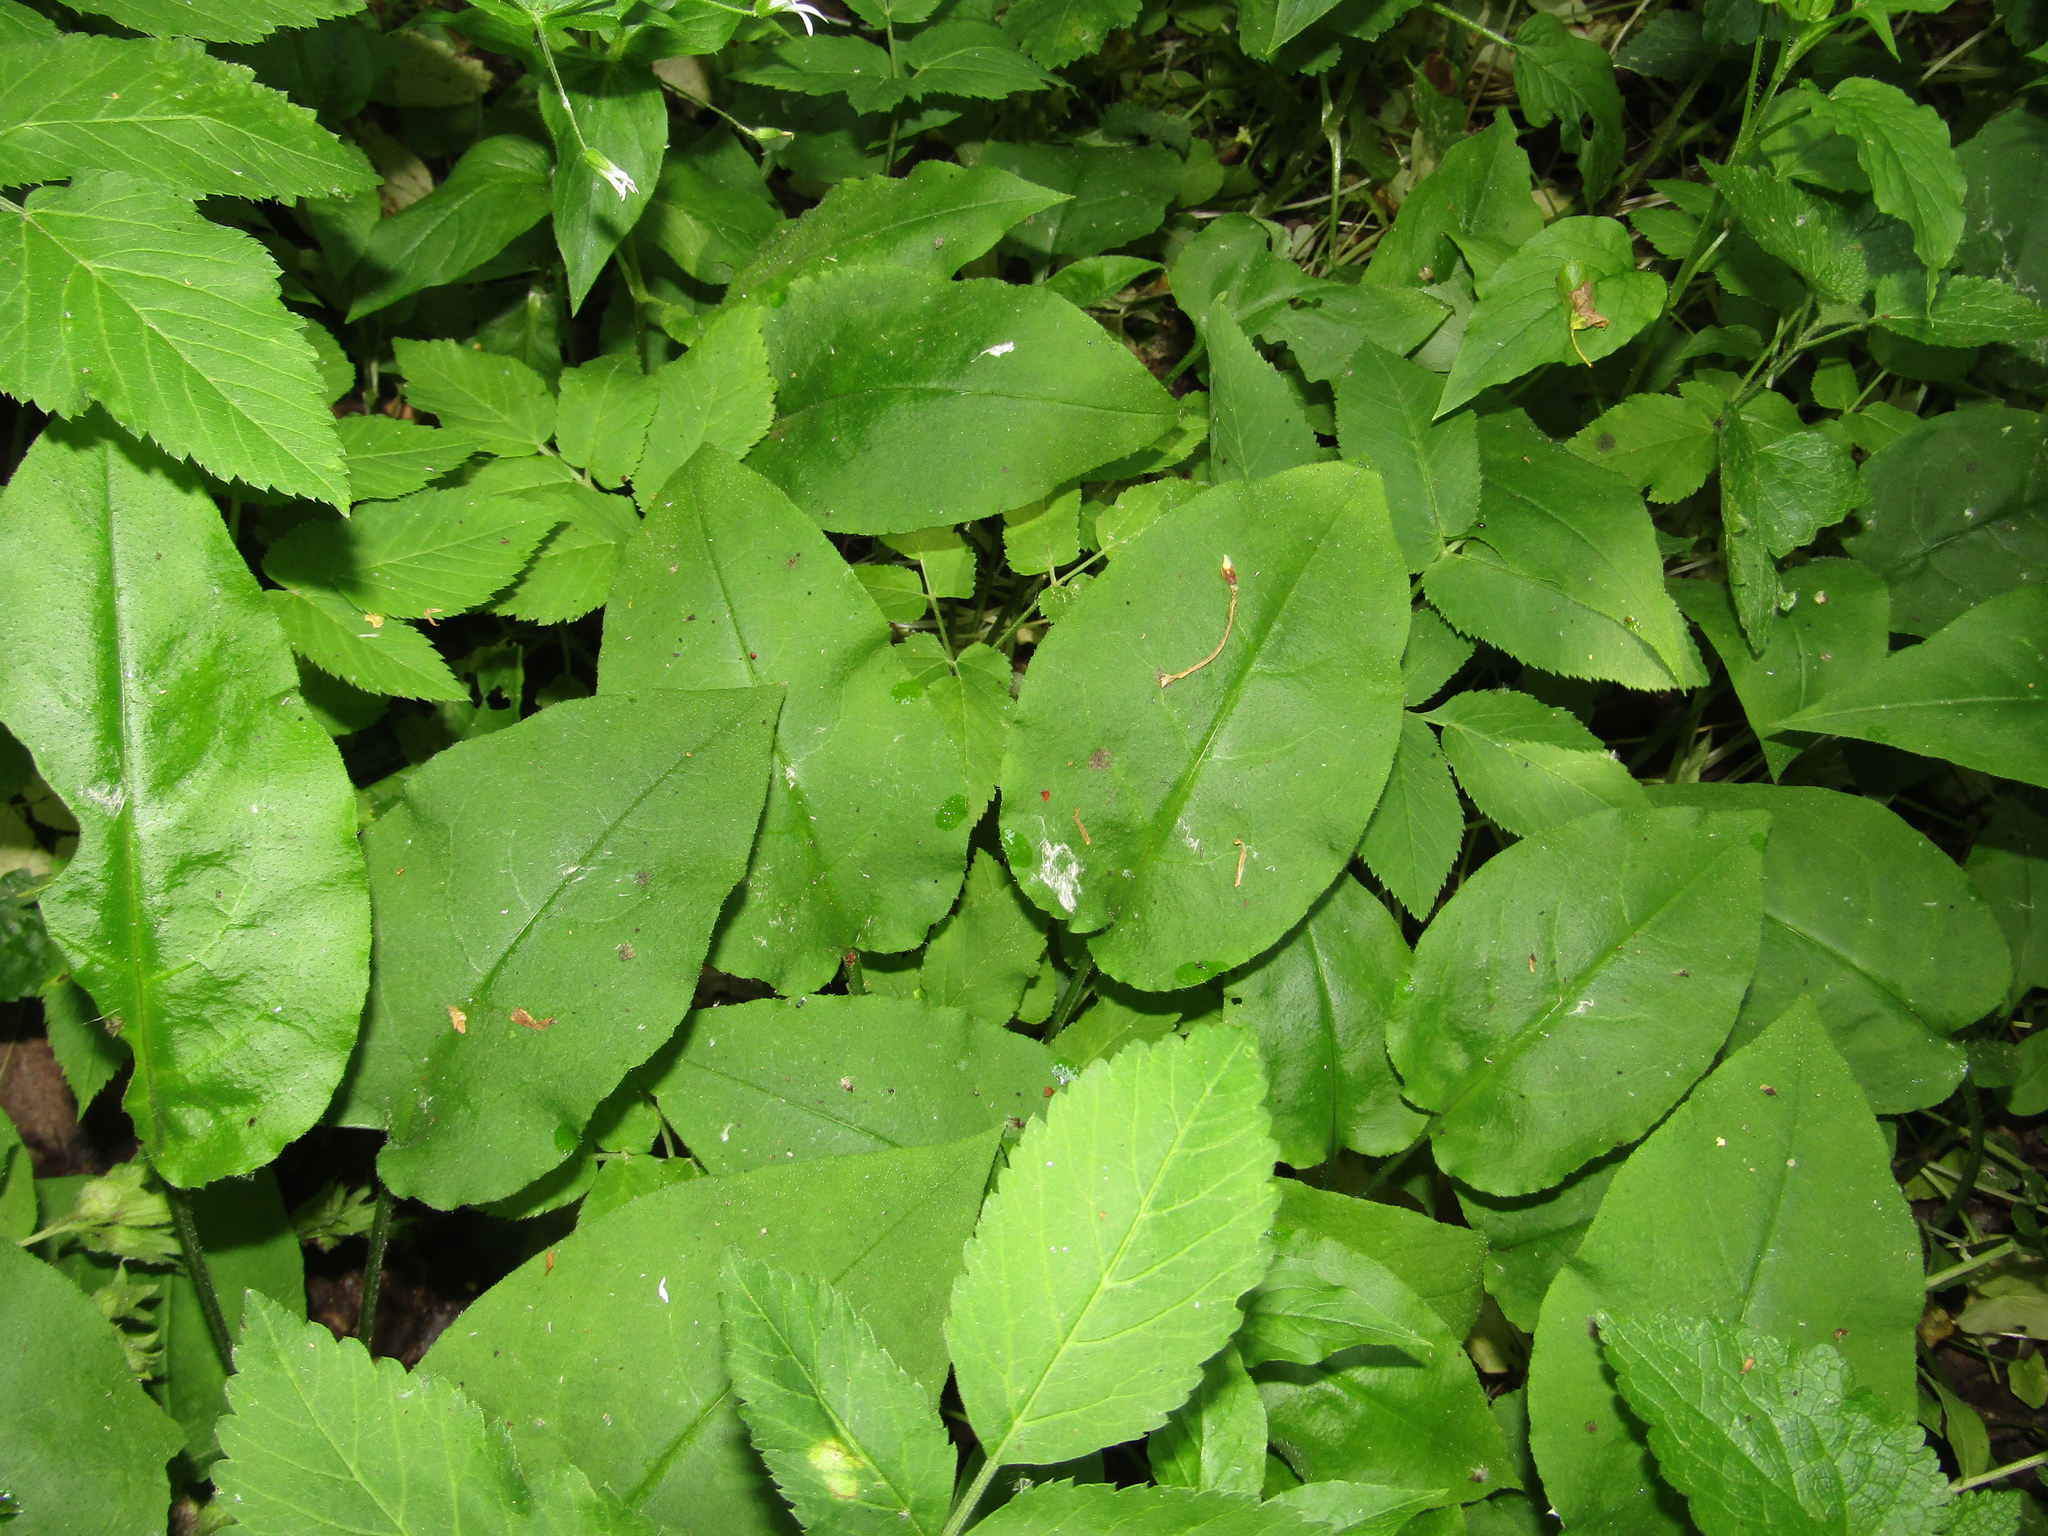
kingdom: Plantae
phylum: Tracheophyta
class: Magnoliopsida
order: Boraginales
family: Boraginaceae
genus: Pulmonaria
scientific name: Pulmonaria obscura
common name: Suffolk lungwort
